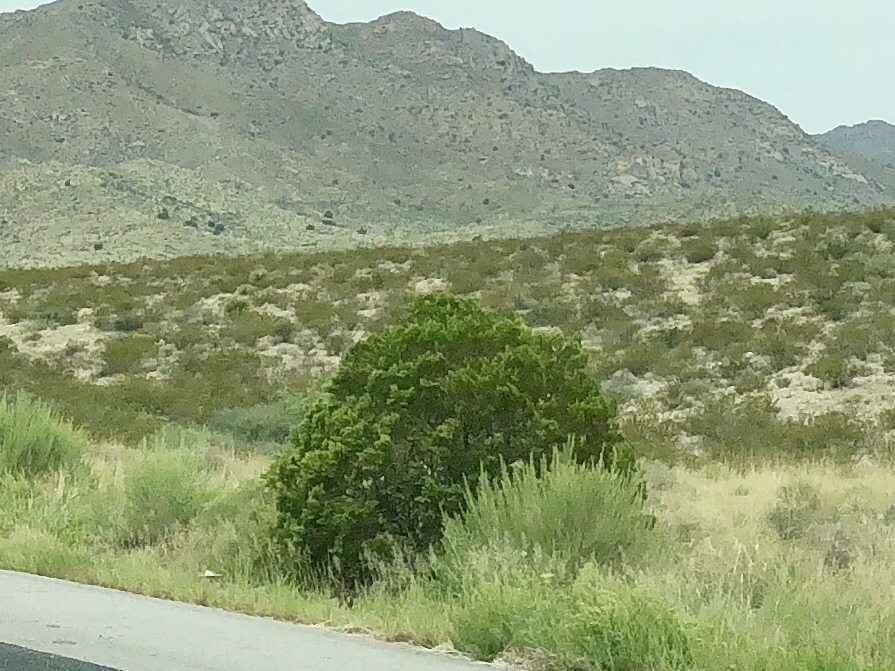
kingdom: Plantae
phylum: Tracheophyta
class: Magnoliopsida
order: Zygophyllales
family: Zygophyllaceae
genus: Larrea
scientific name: Larrea tridentata
